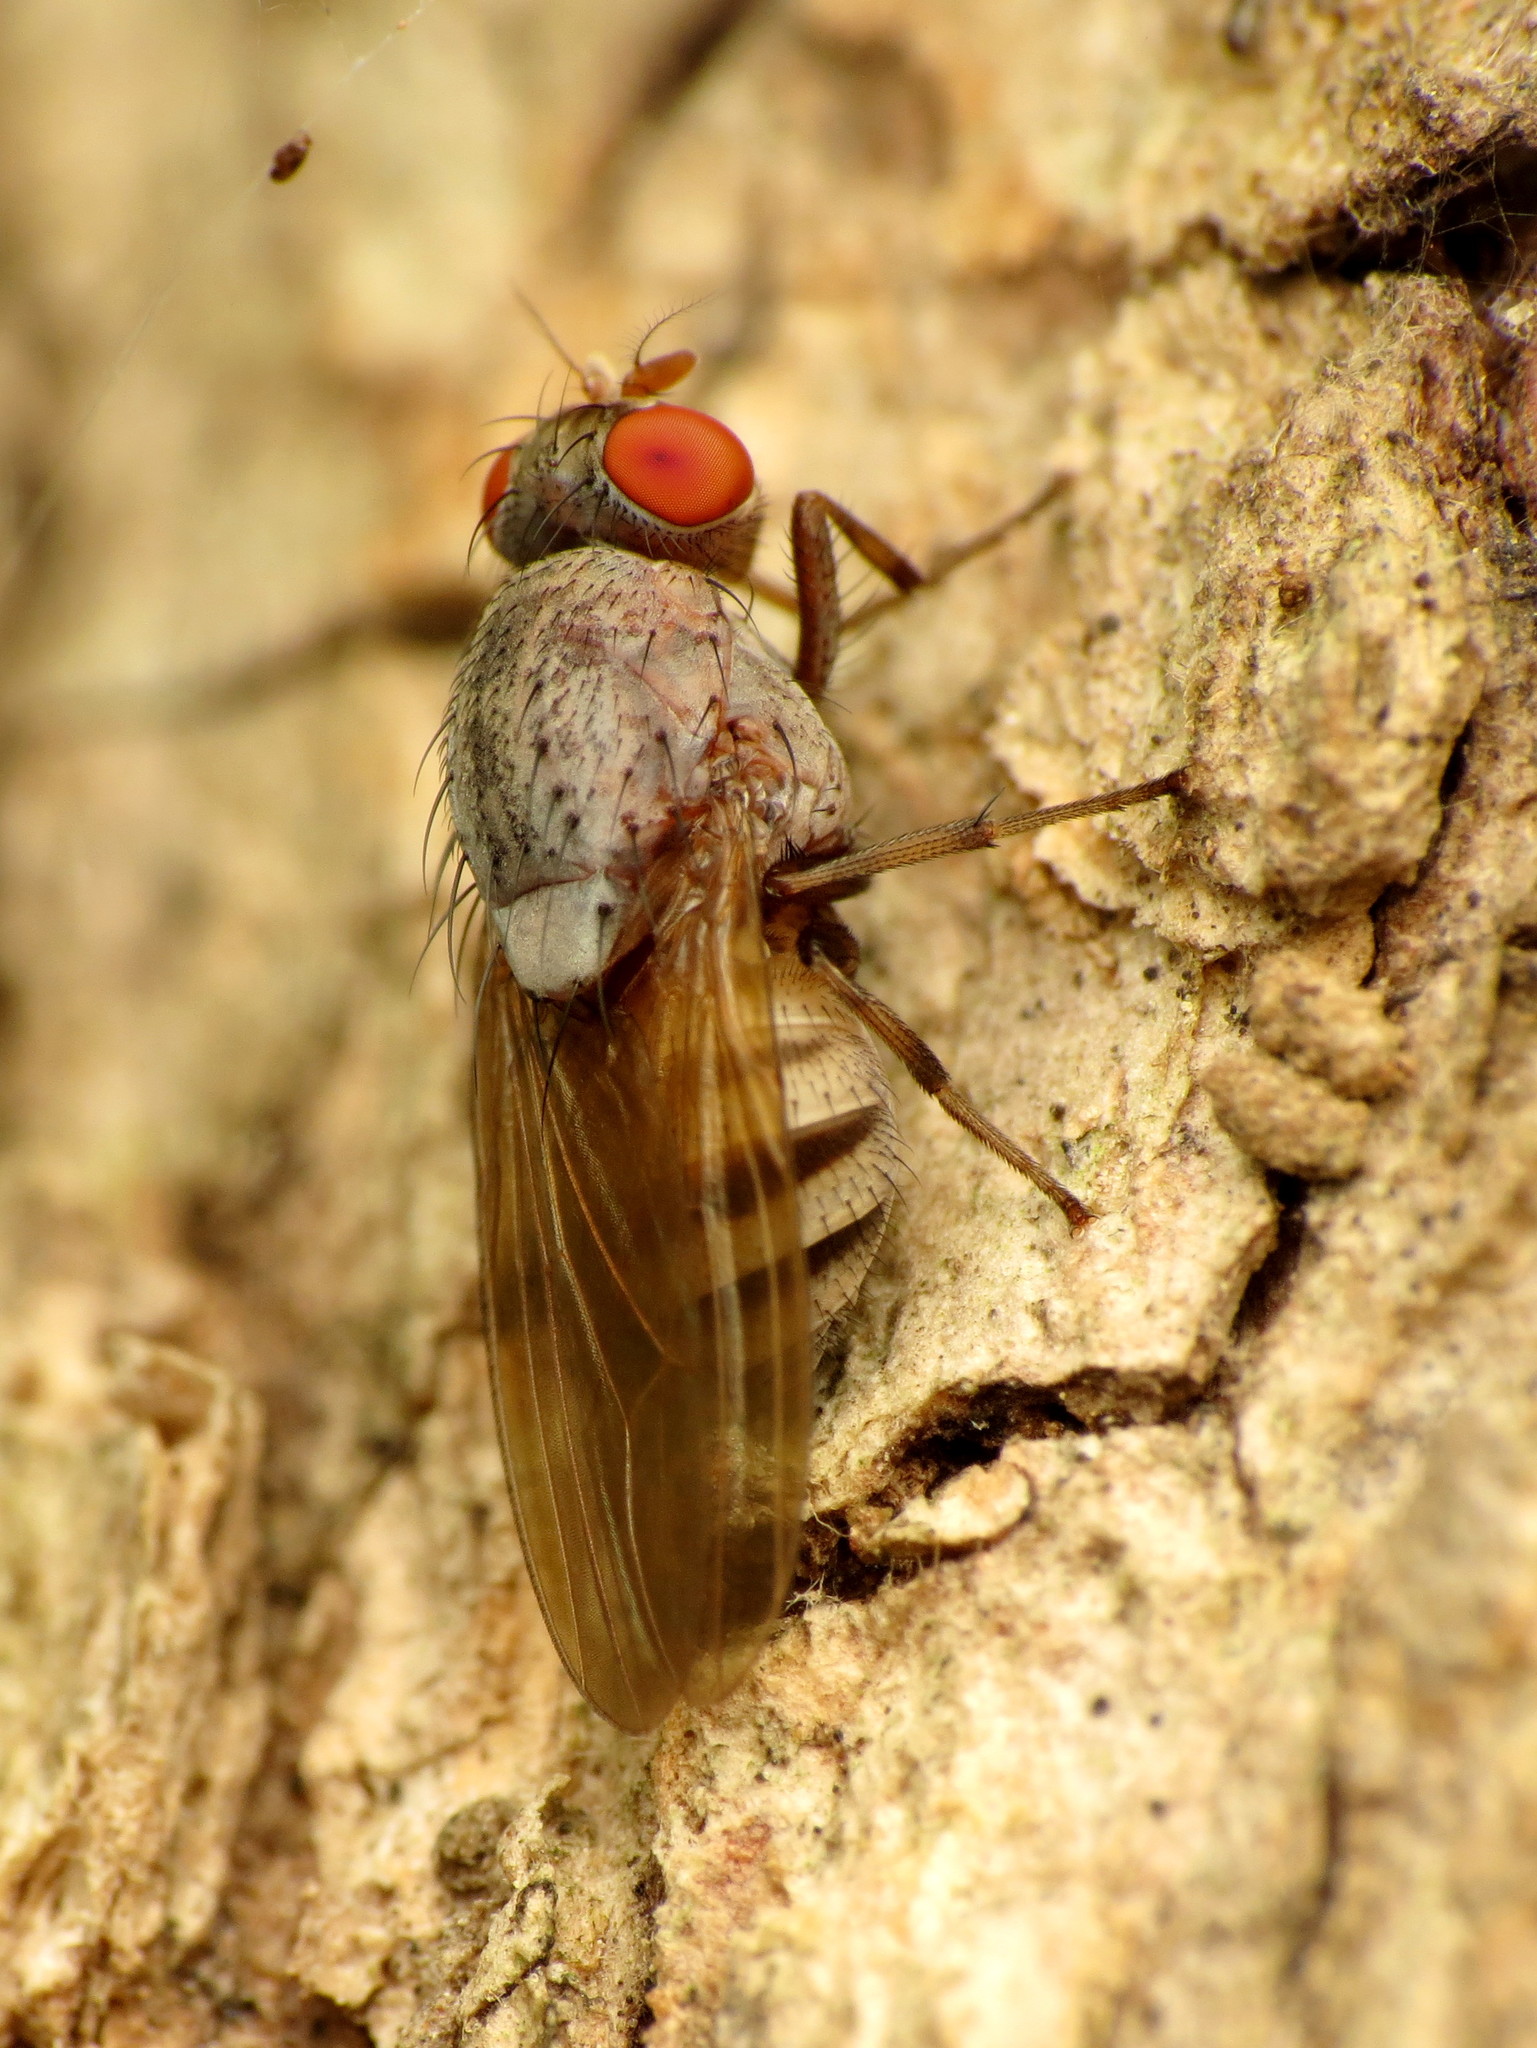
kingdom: Animalia
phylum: Arthropoda
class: Insecta
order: Diptera
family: Lauxaniidae
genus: Minettia
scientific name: Minettia magna
